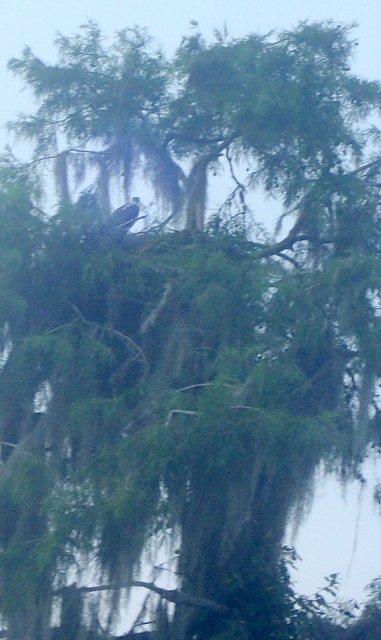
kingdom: Animalia
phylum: Chordata
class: Aves
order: Accipitriformes
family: Pandionidae
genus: Pandion
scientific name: Pandion haliaetus
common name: Osprey
